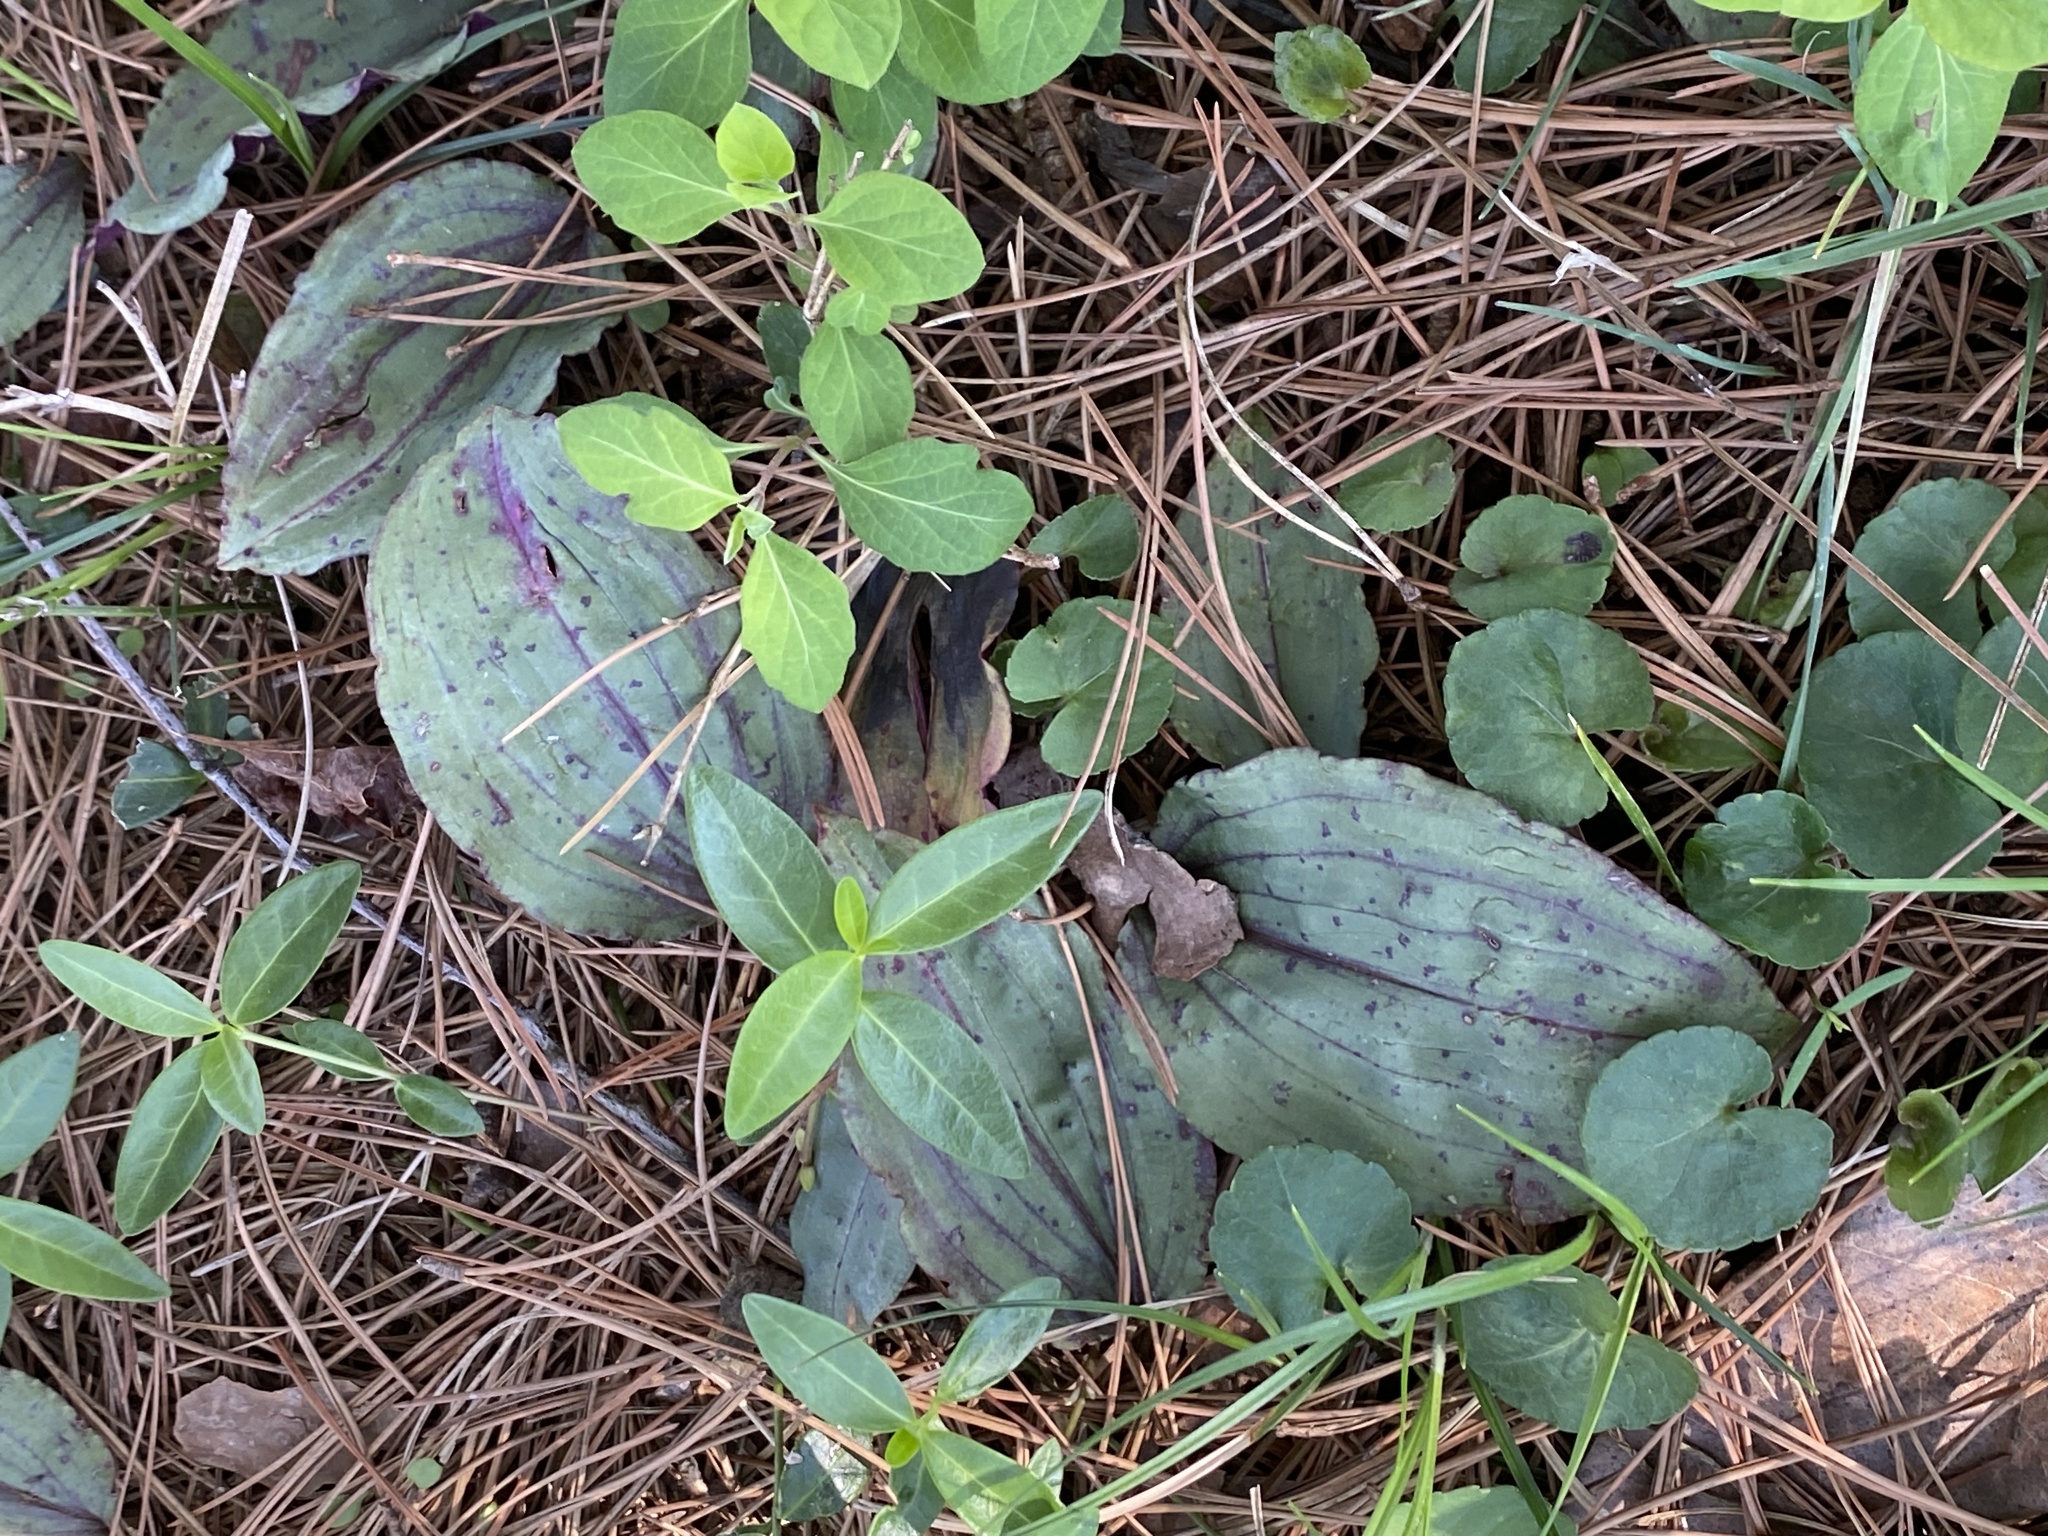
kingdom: Plantae
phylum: Tracheophyta
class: Liliopsida
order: Asparagales
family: Orchidaceae
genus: Tipularia
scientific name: Tipularia discolor
